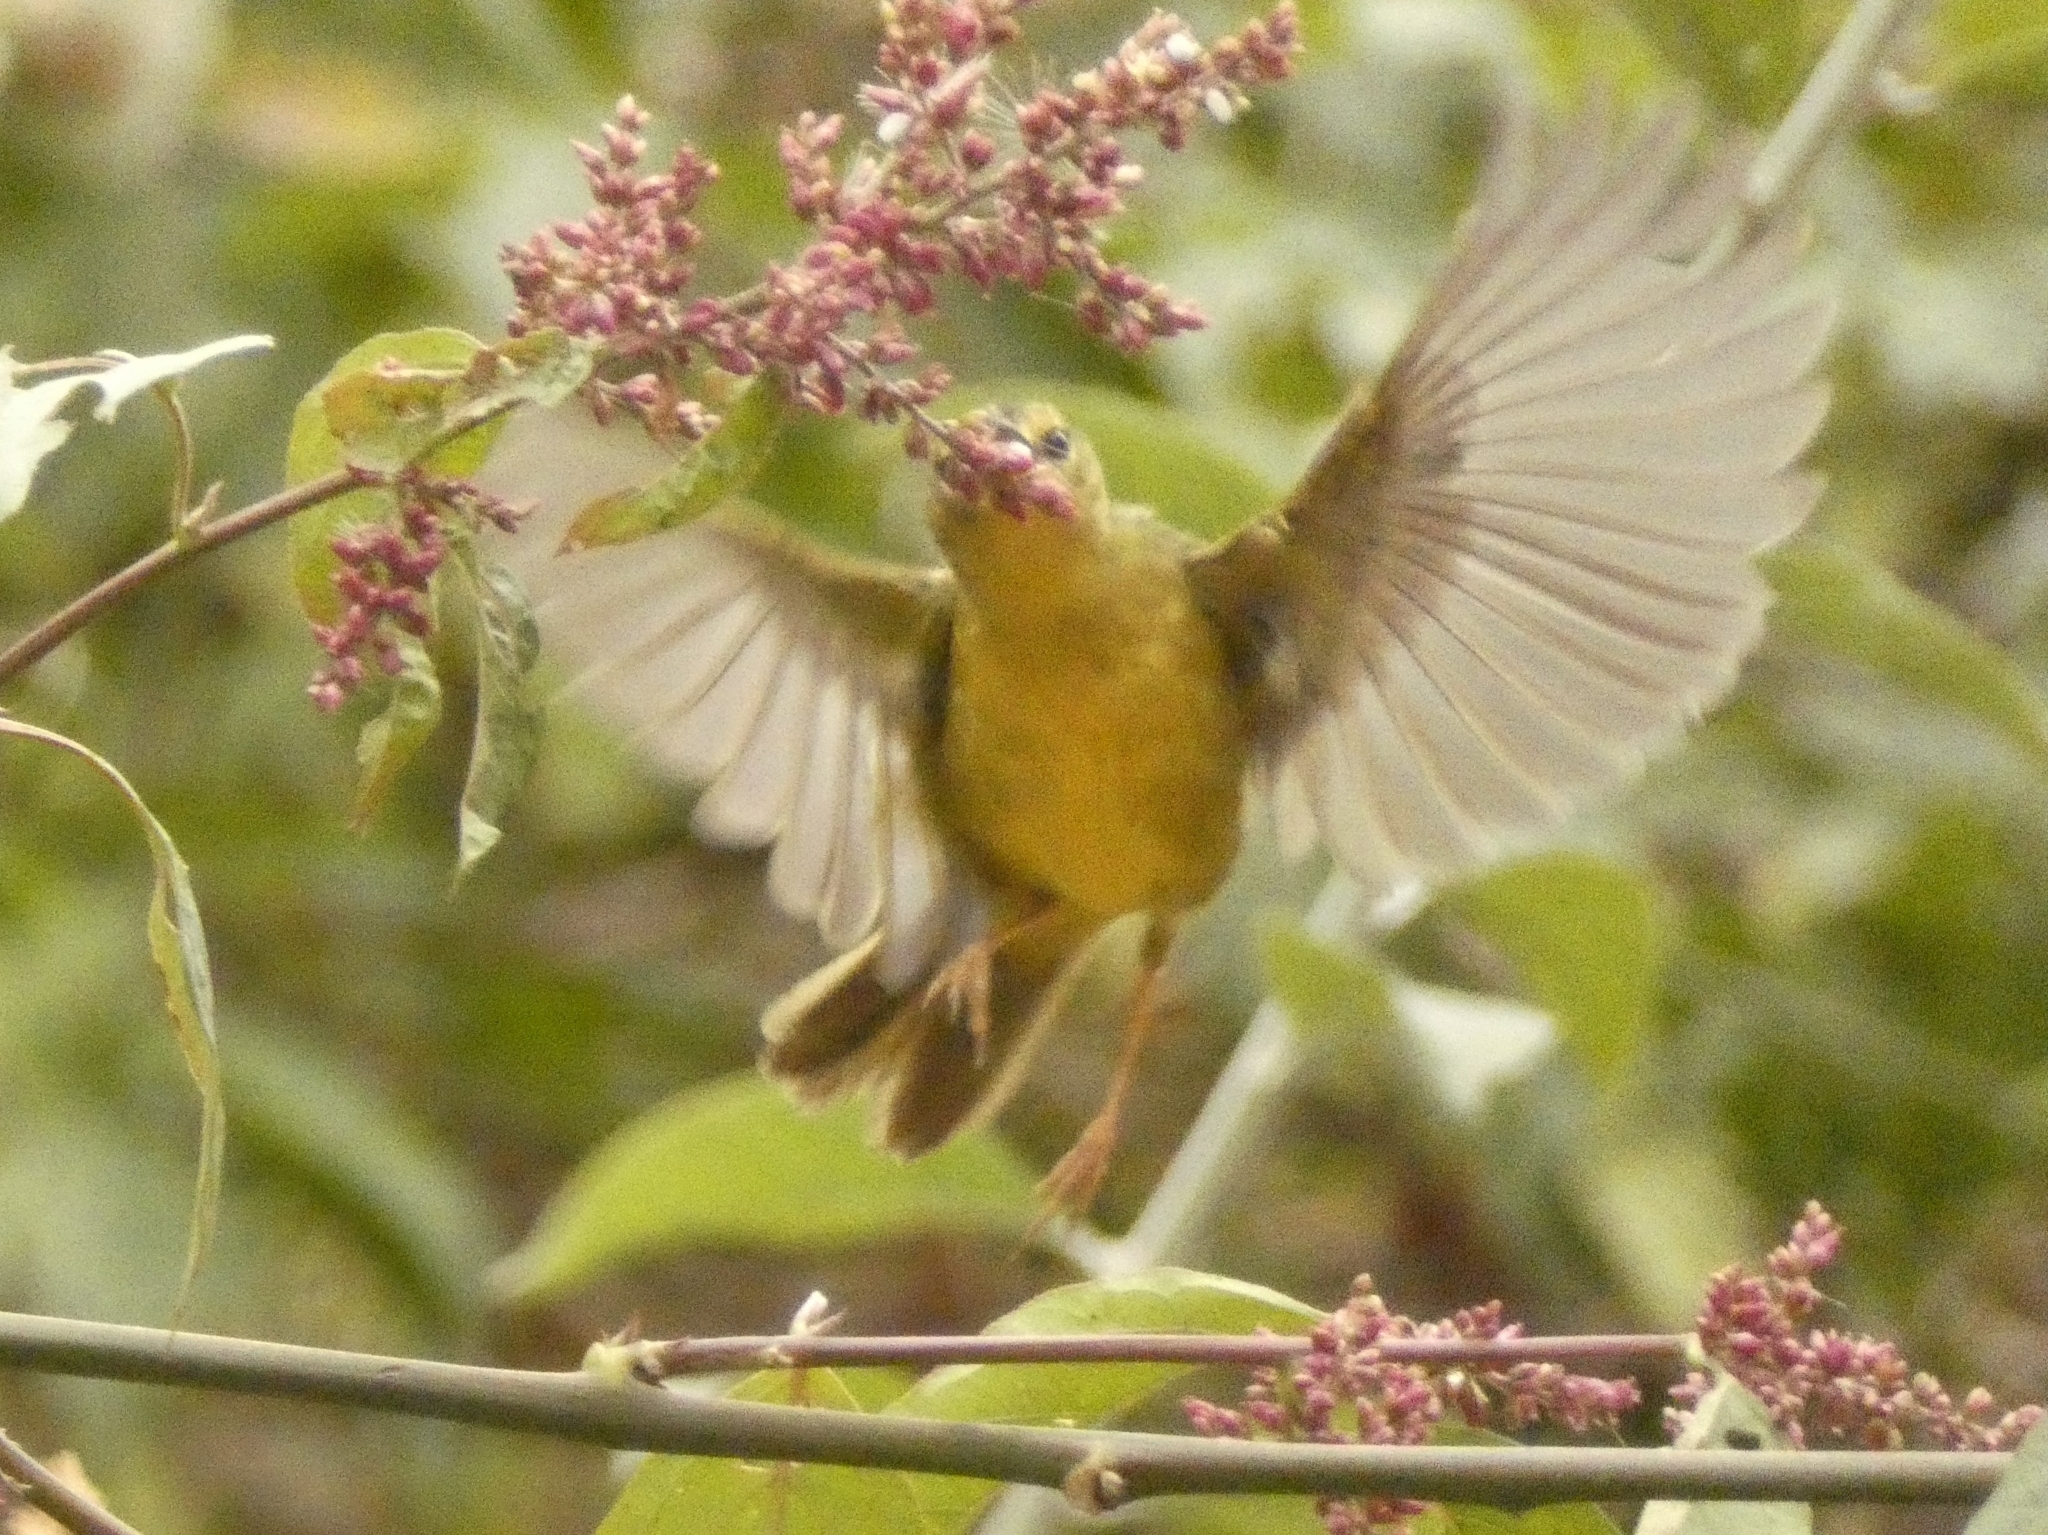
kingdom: Animalia
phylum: Chordata
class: Aves
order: Passeriformes
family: Parulidae
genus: Myiothlypis
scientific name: Myiothlypis bivittata
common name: Two-banded warbler
